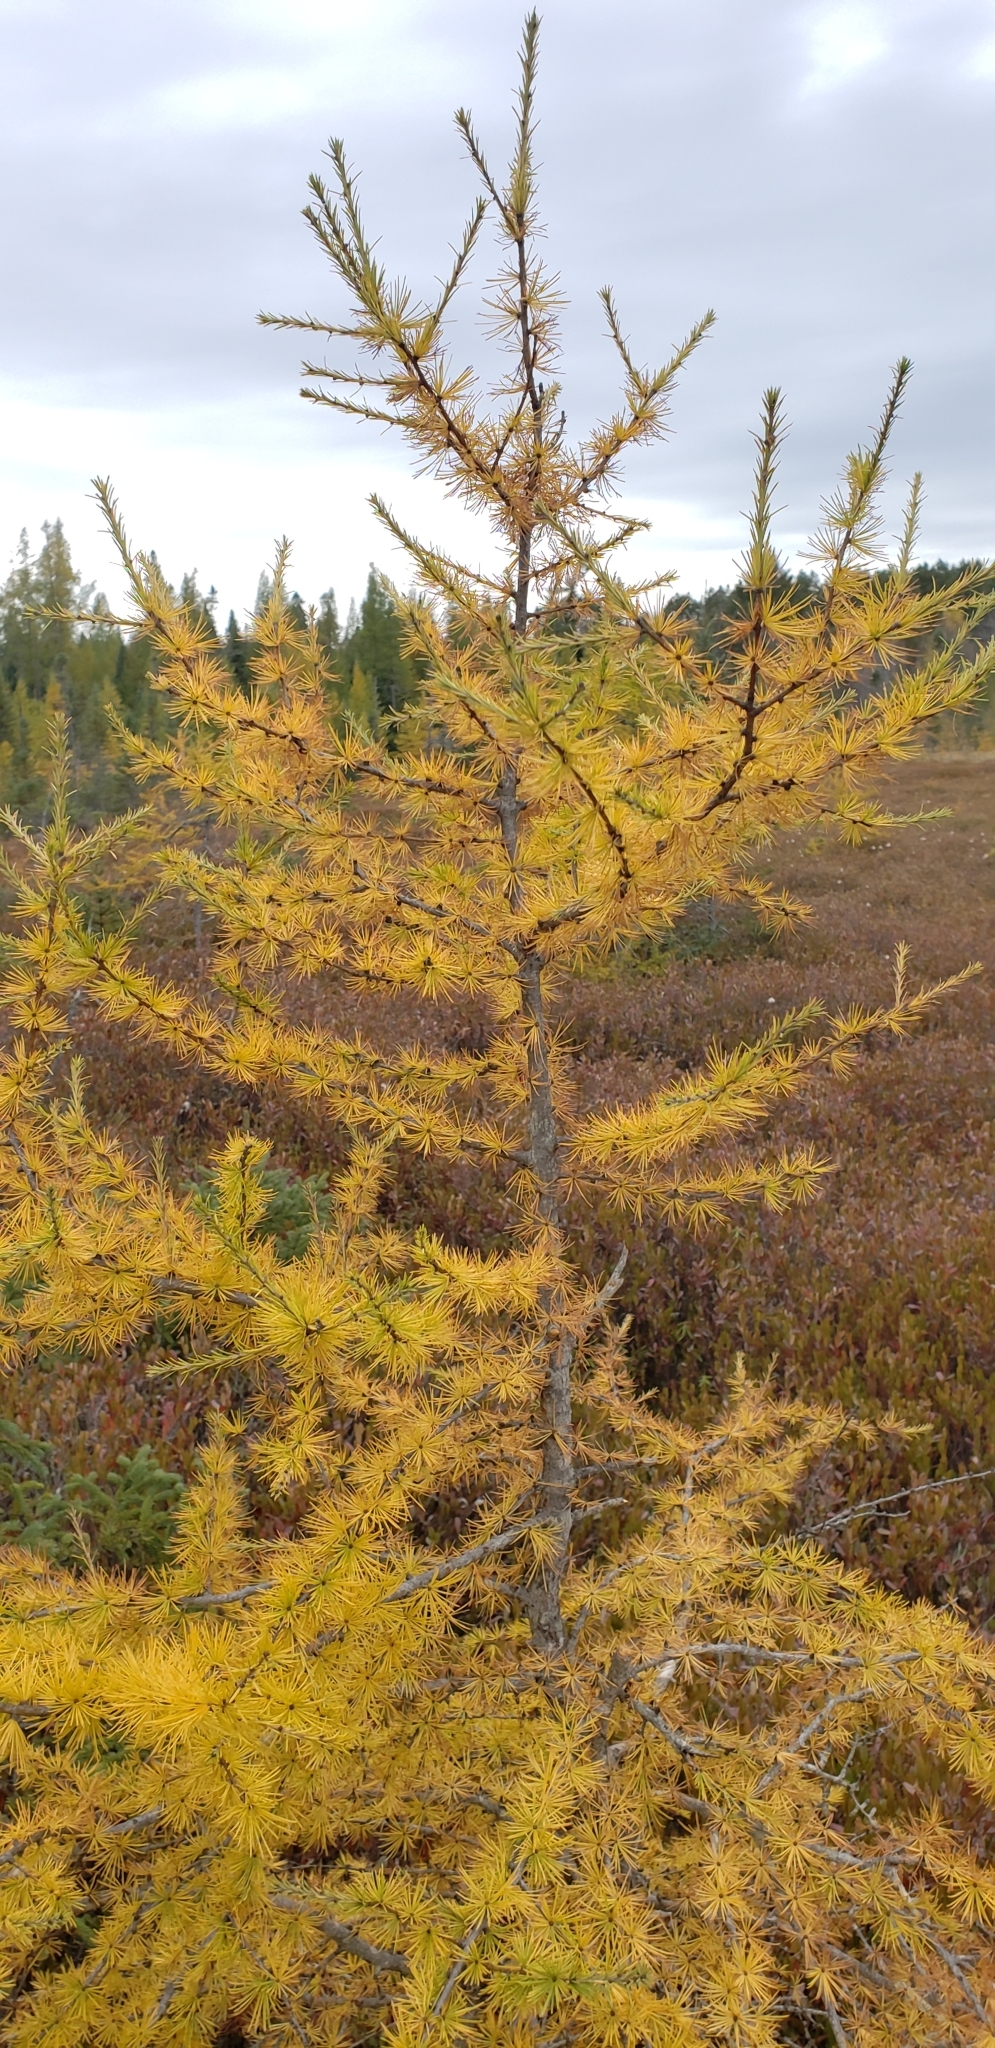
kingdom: Plantae
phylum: Tracheophyta
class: Pinopsida
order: Pinales
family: Pinaceae
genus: Larix
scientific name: Larix laricina
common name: American larch
